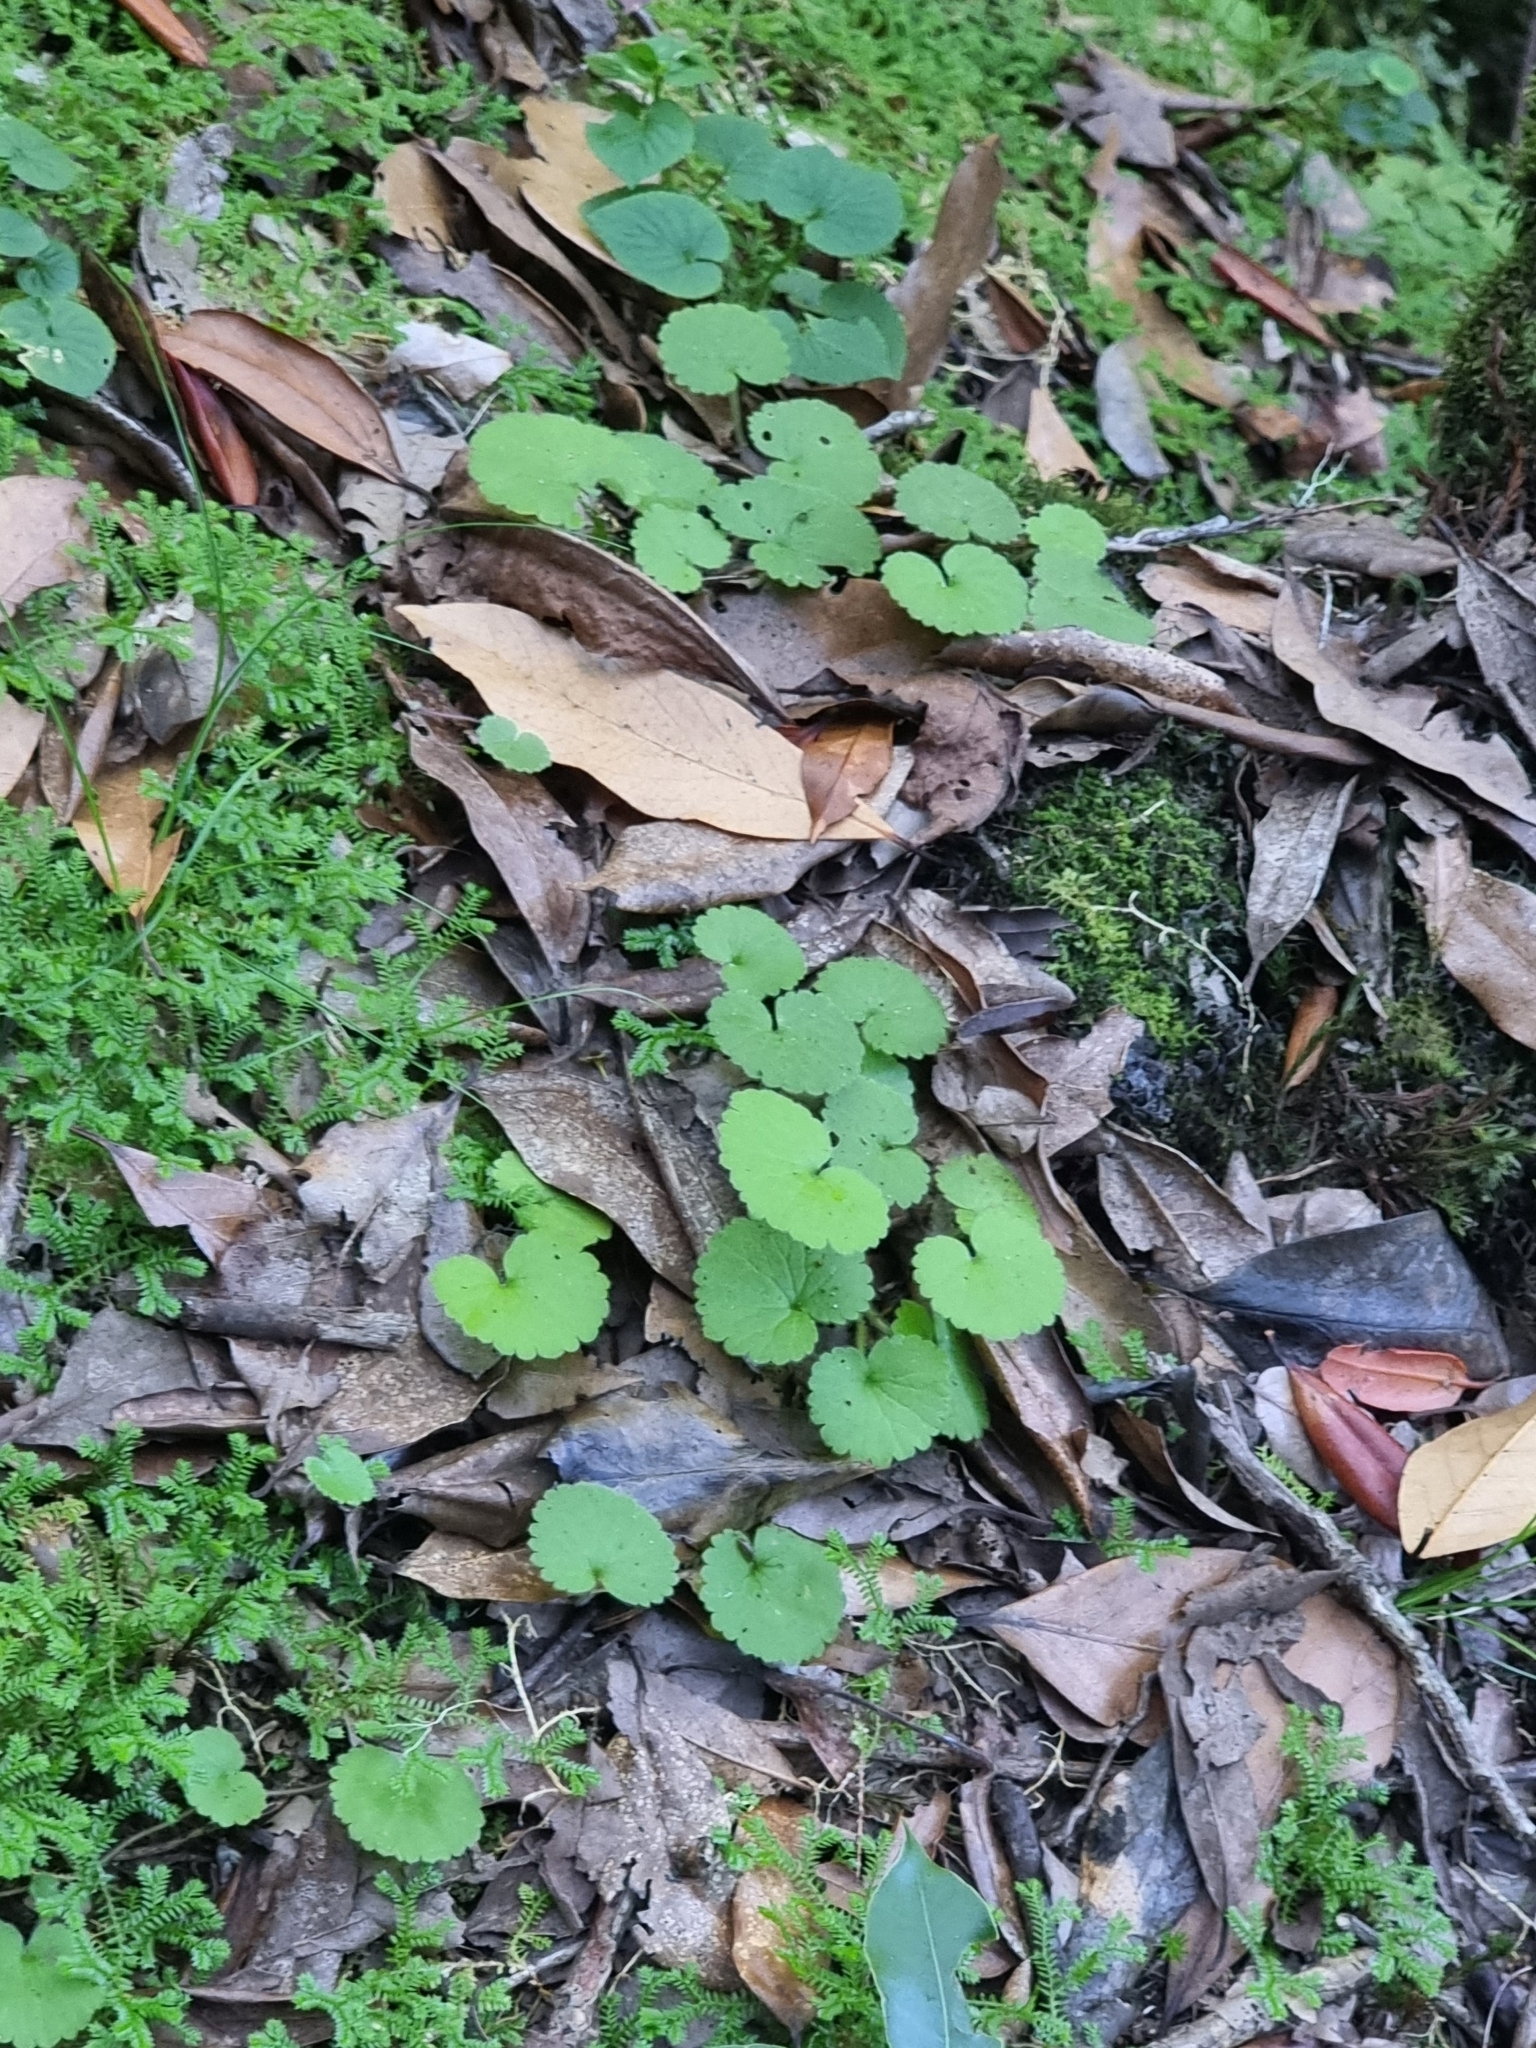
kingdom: Plantae
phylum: Tracheophyta
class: Magnoliopsida
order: Lamiales
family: Plantaginaceae
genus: Sibthorpia
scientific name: Sibthorpia peregrina
